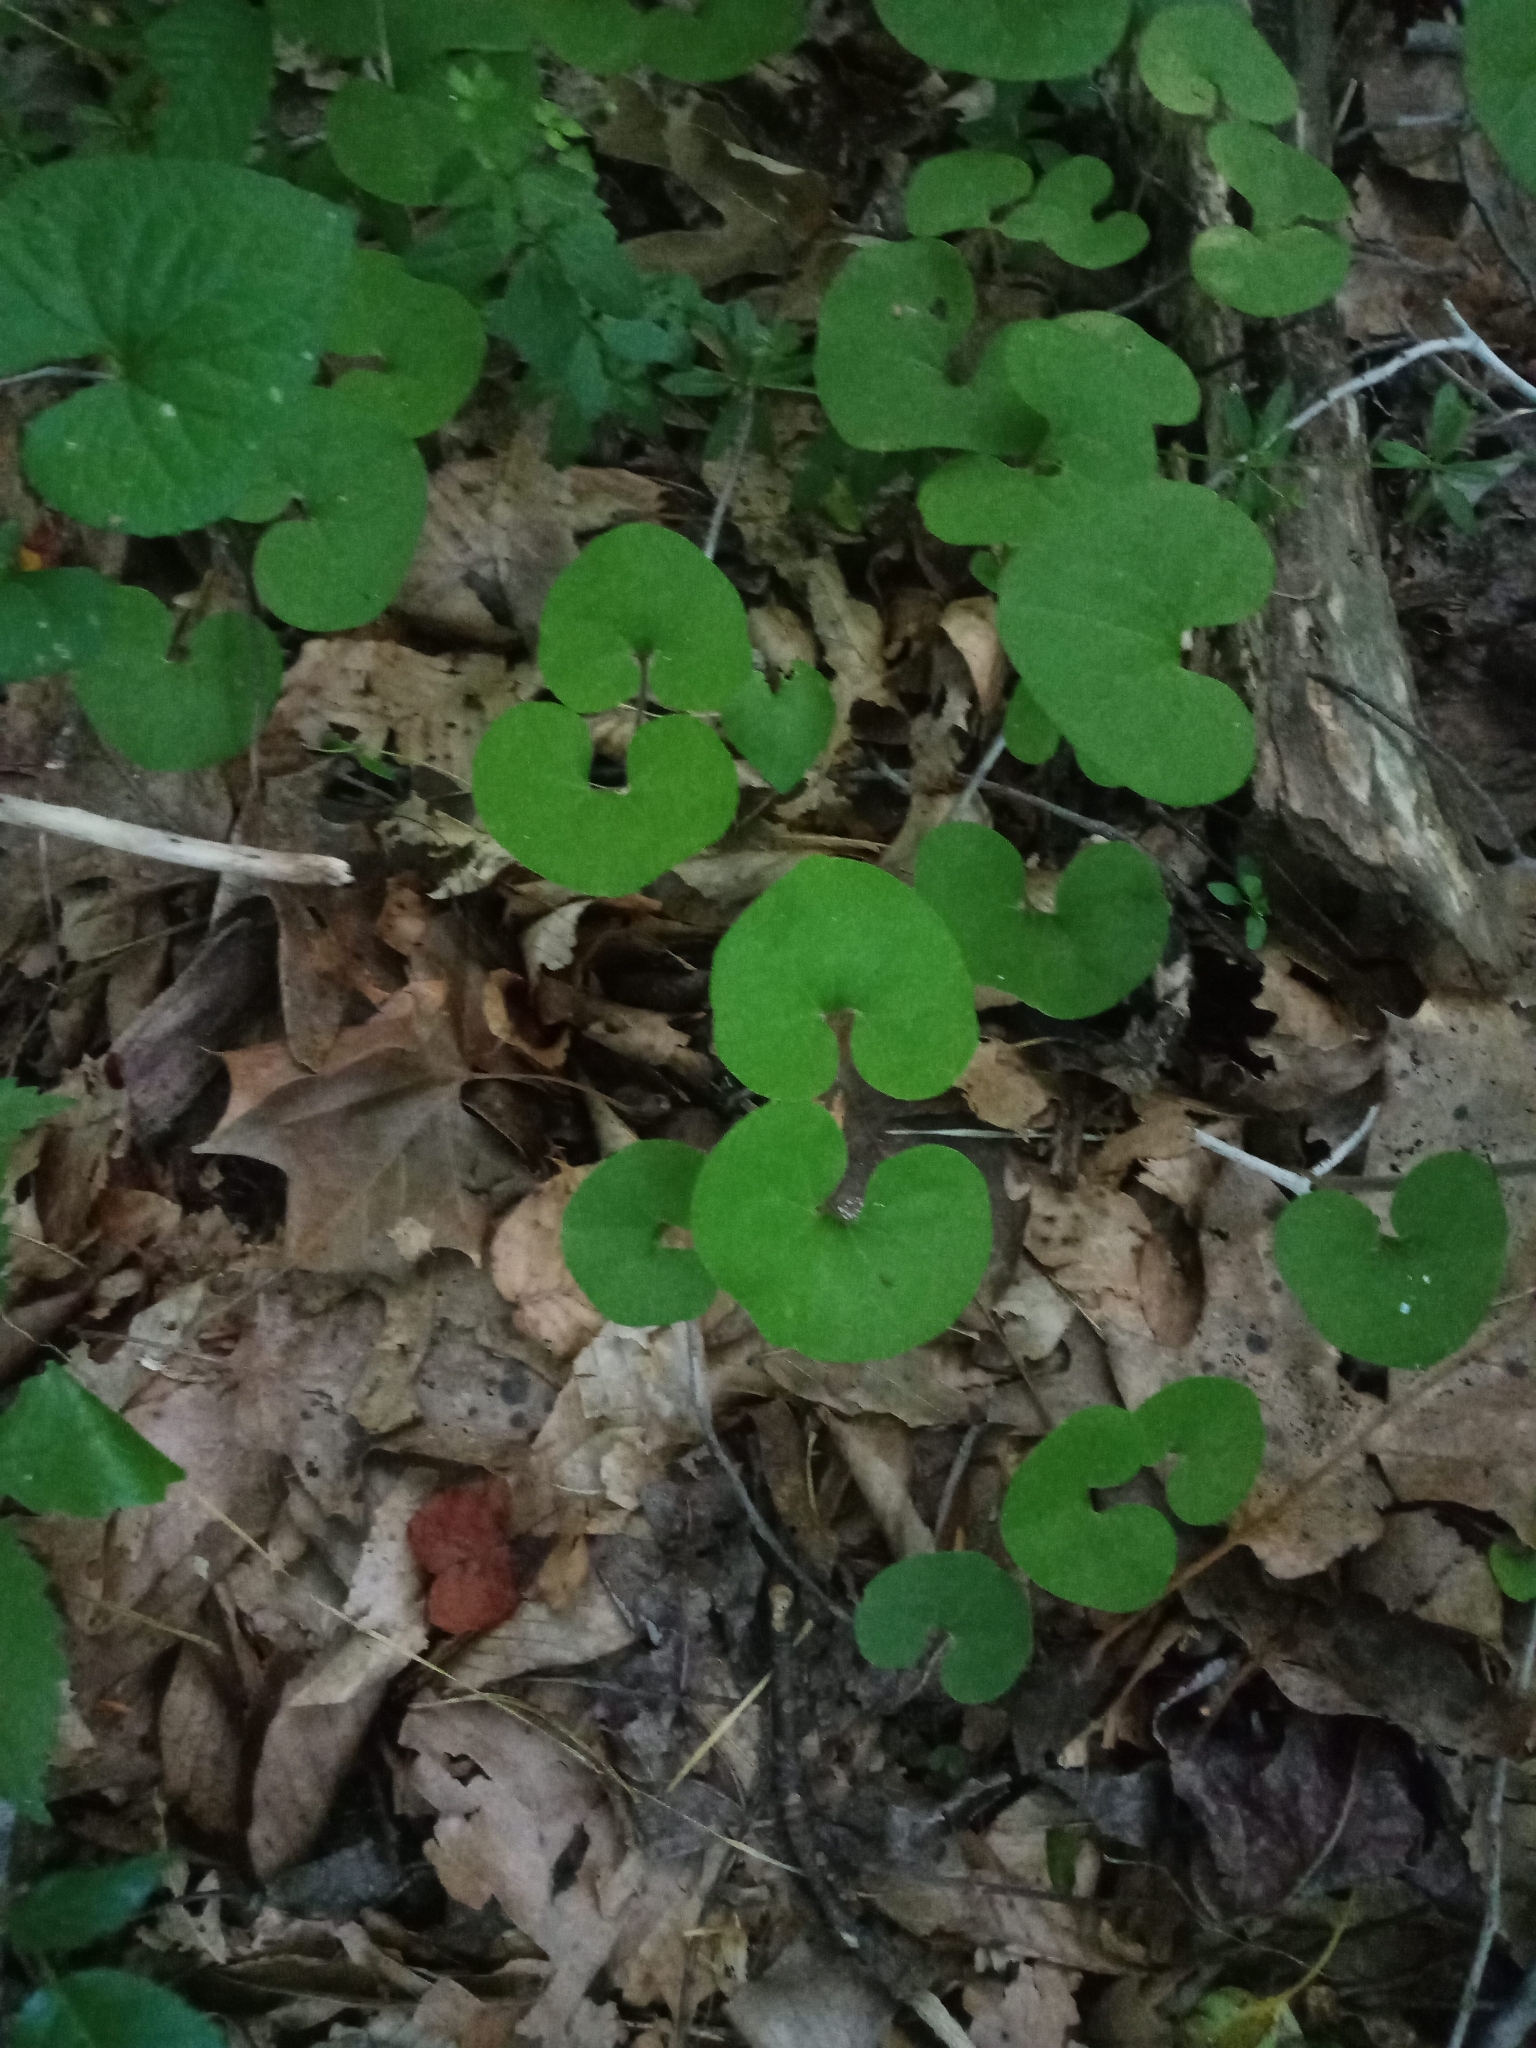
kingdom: Plantae
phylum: Tracheophyta
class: Magnoliopsida
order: Piperales
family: Aristolochiaceae
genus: Asarum
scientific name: Asarum canadense
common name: Wild ginger
